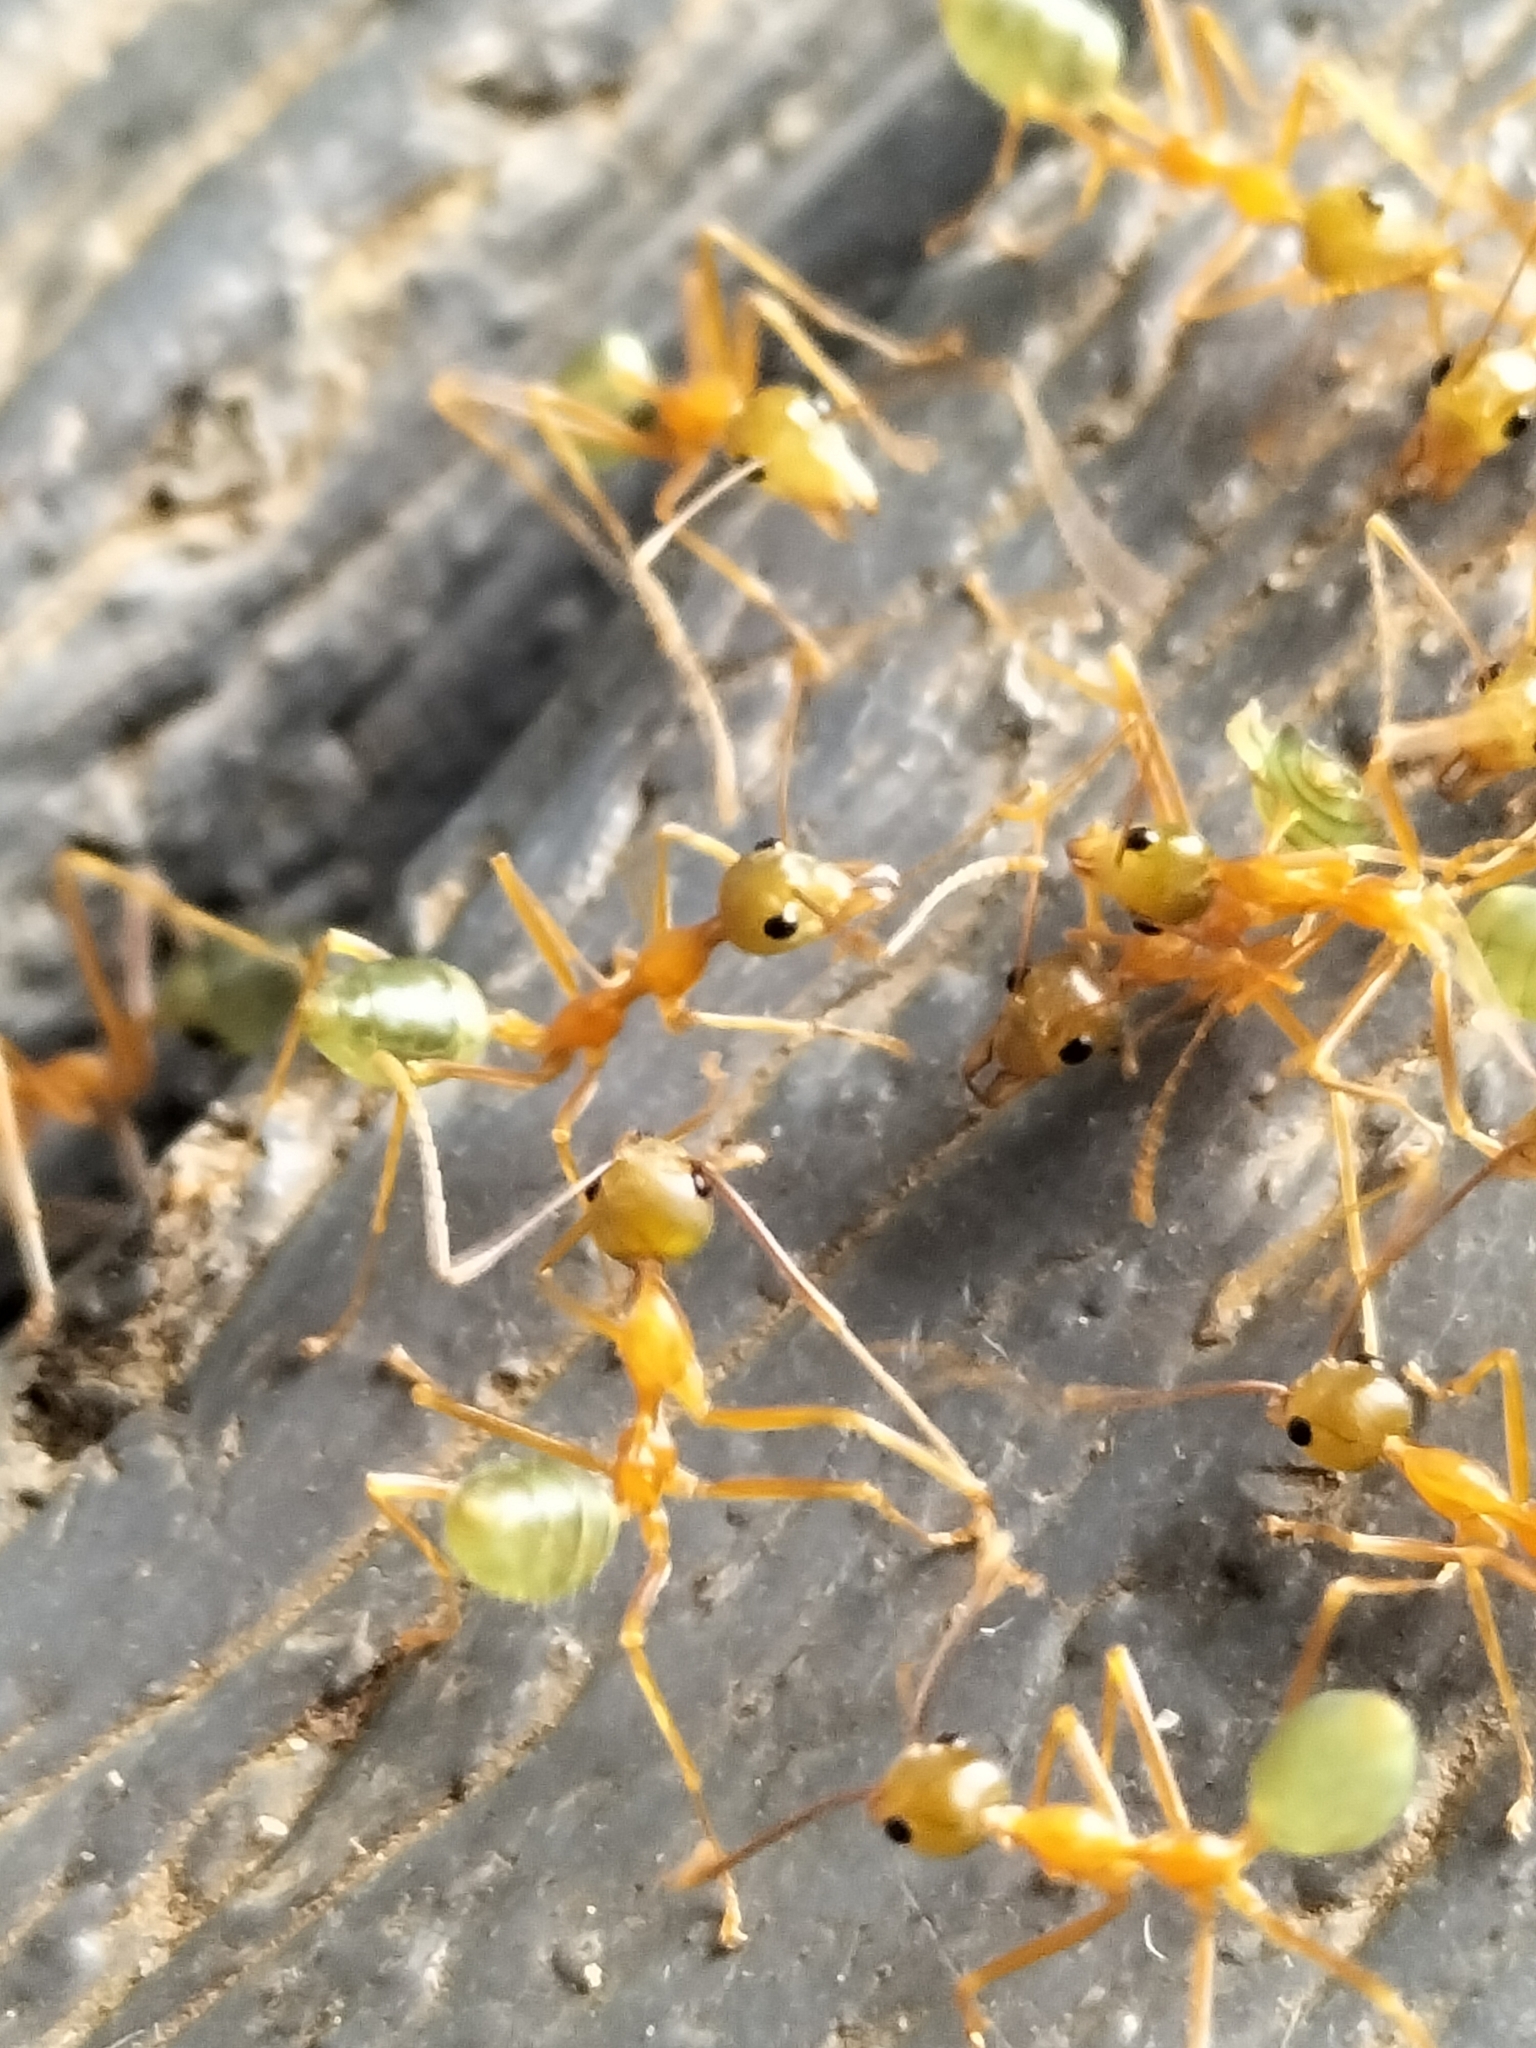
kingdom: Animalia
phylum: Arthropoda
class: Insecta
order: Hymenoptera
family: Formicidae
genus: Oecophylla
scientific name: Oecophylla smaragdina
